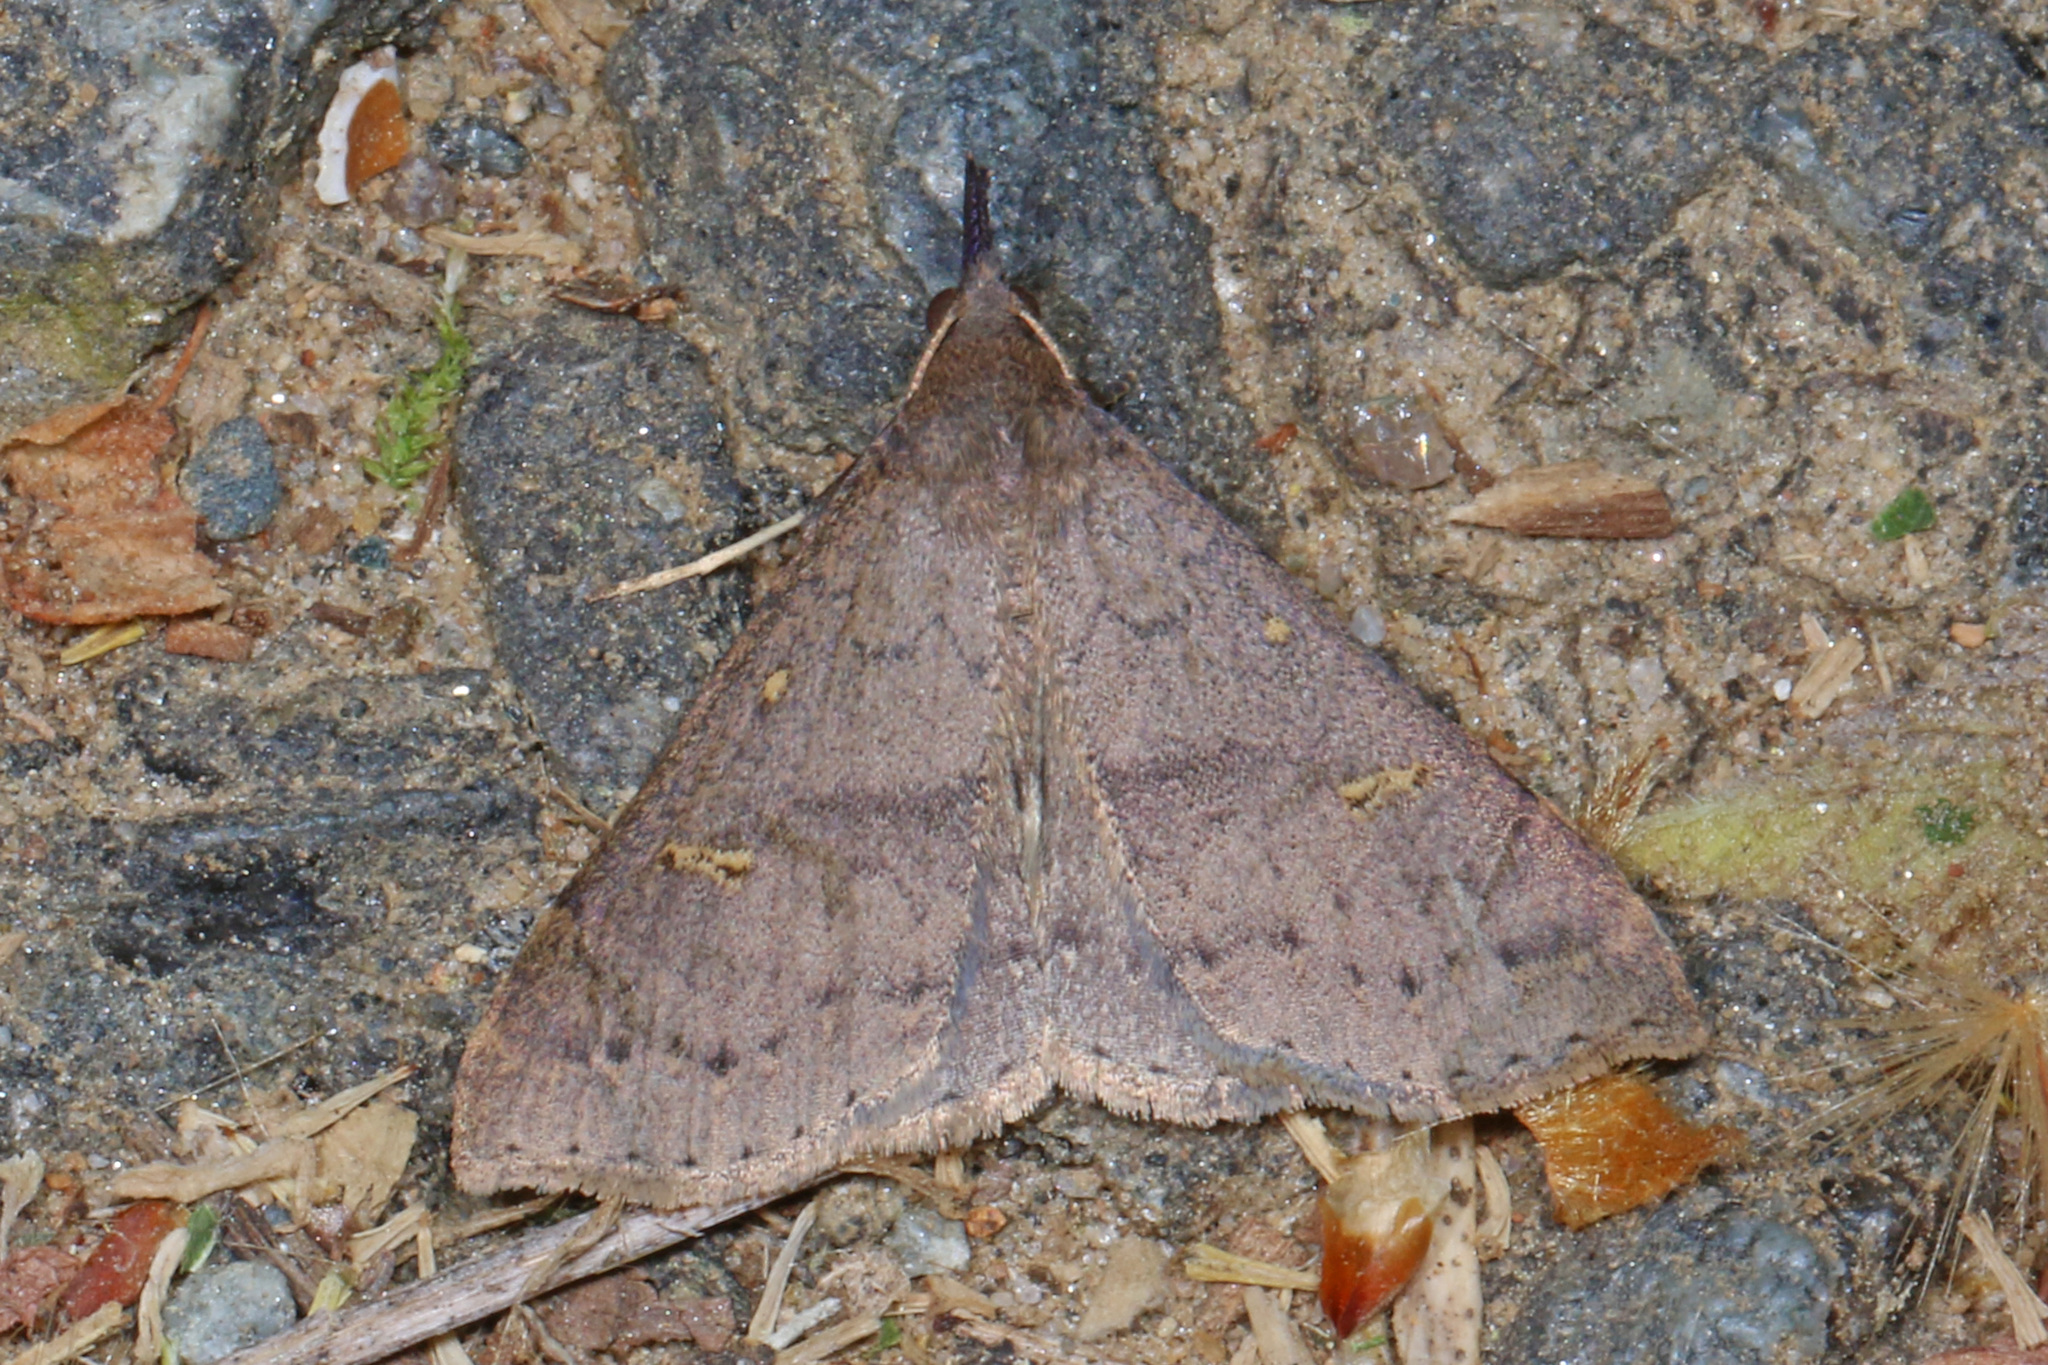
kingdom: Animalia
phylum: Arthropoda
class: Insecta
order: Lepidoptera
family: Erebidae
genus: Renia
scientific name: Renia adspergillus
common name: Speckled renia moth
